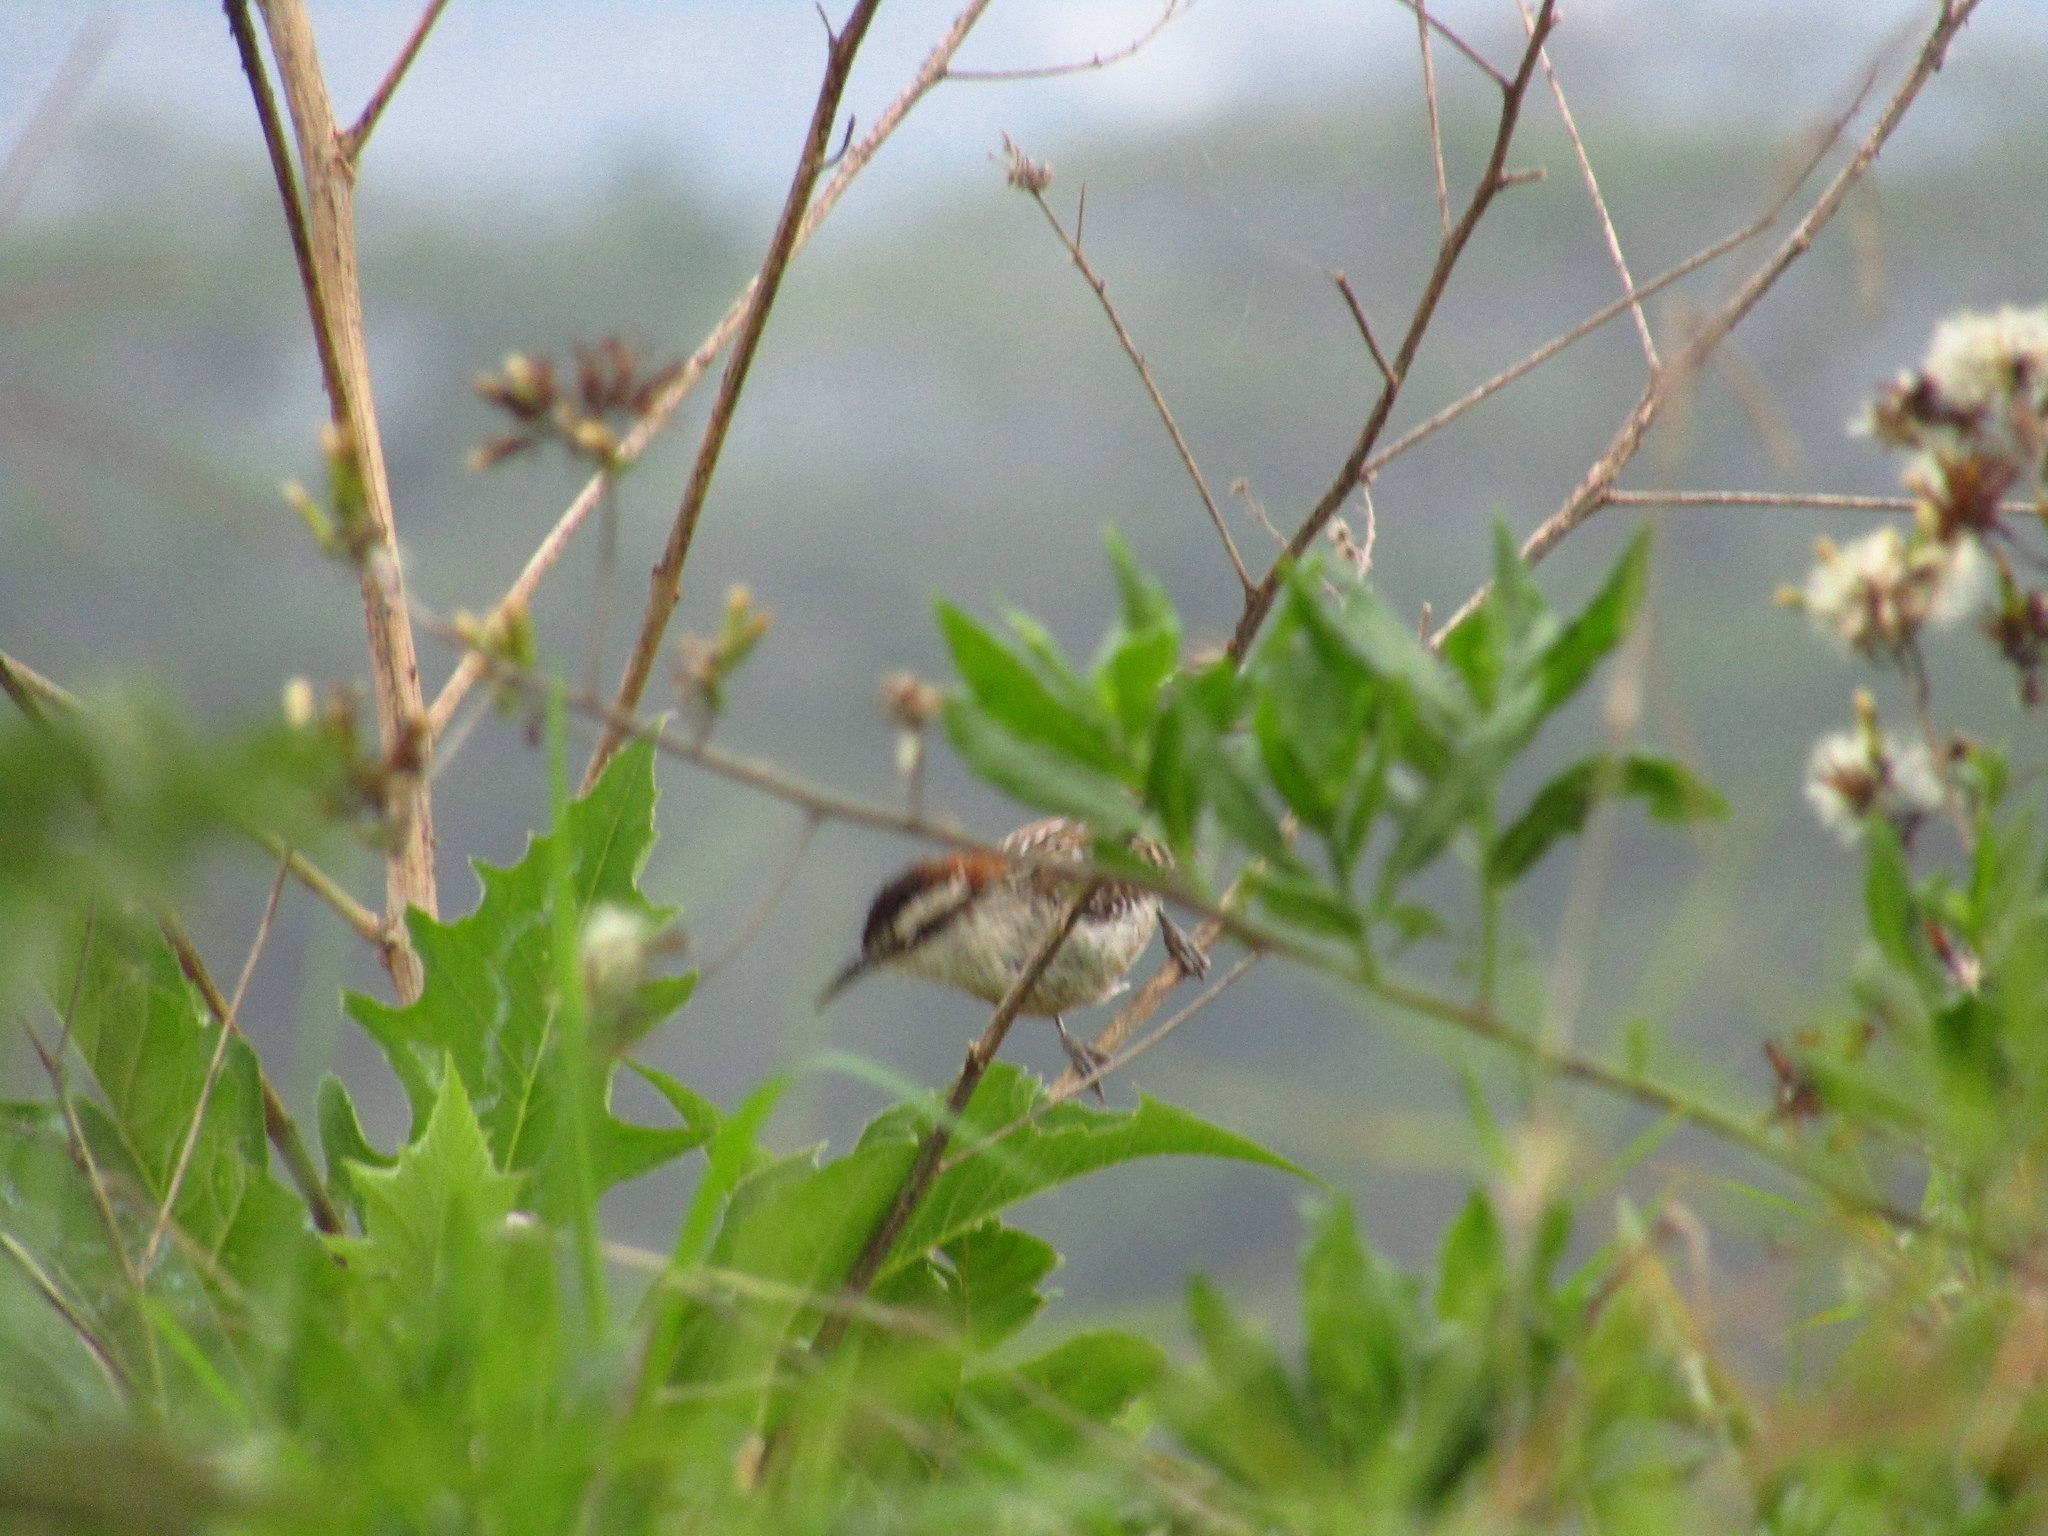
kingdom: Animalia
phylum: Chordata
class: Aves
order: Passeriformes
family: Troglodytidae
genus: Campylorhynchus
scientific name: Campylorhynchus rufinucha
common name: Rufous-naped wren
